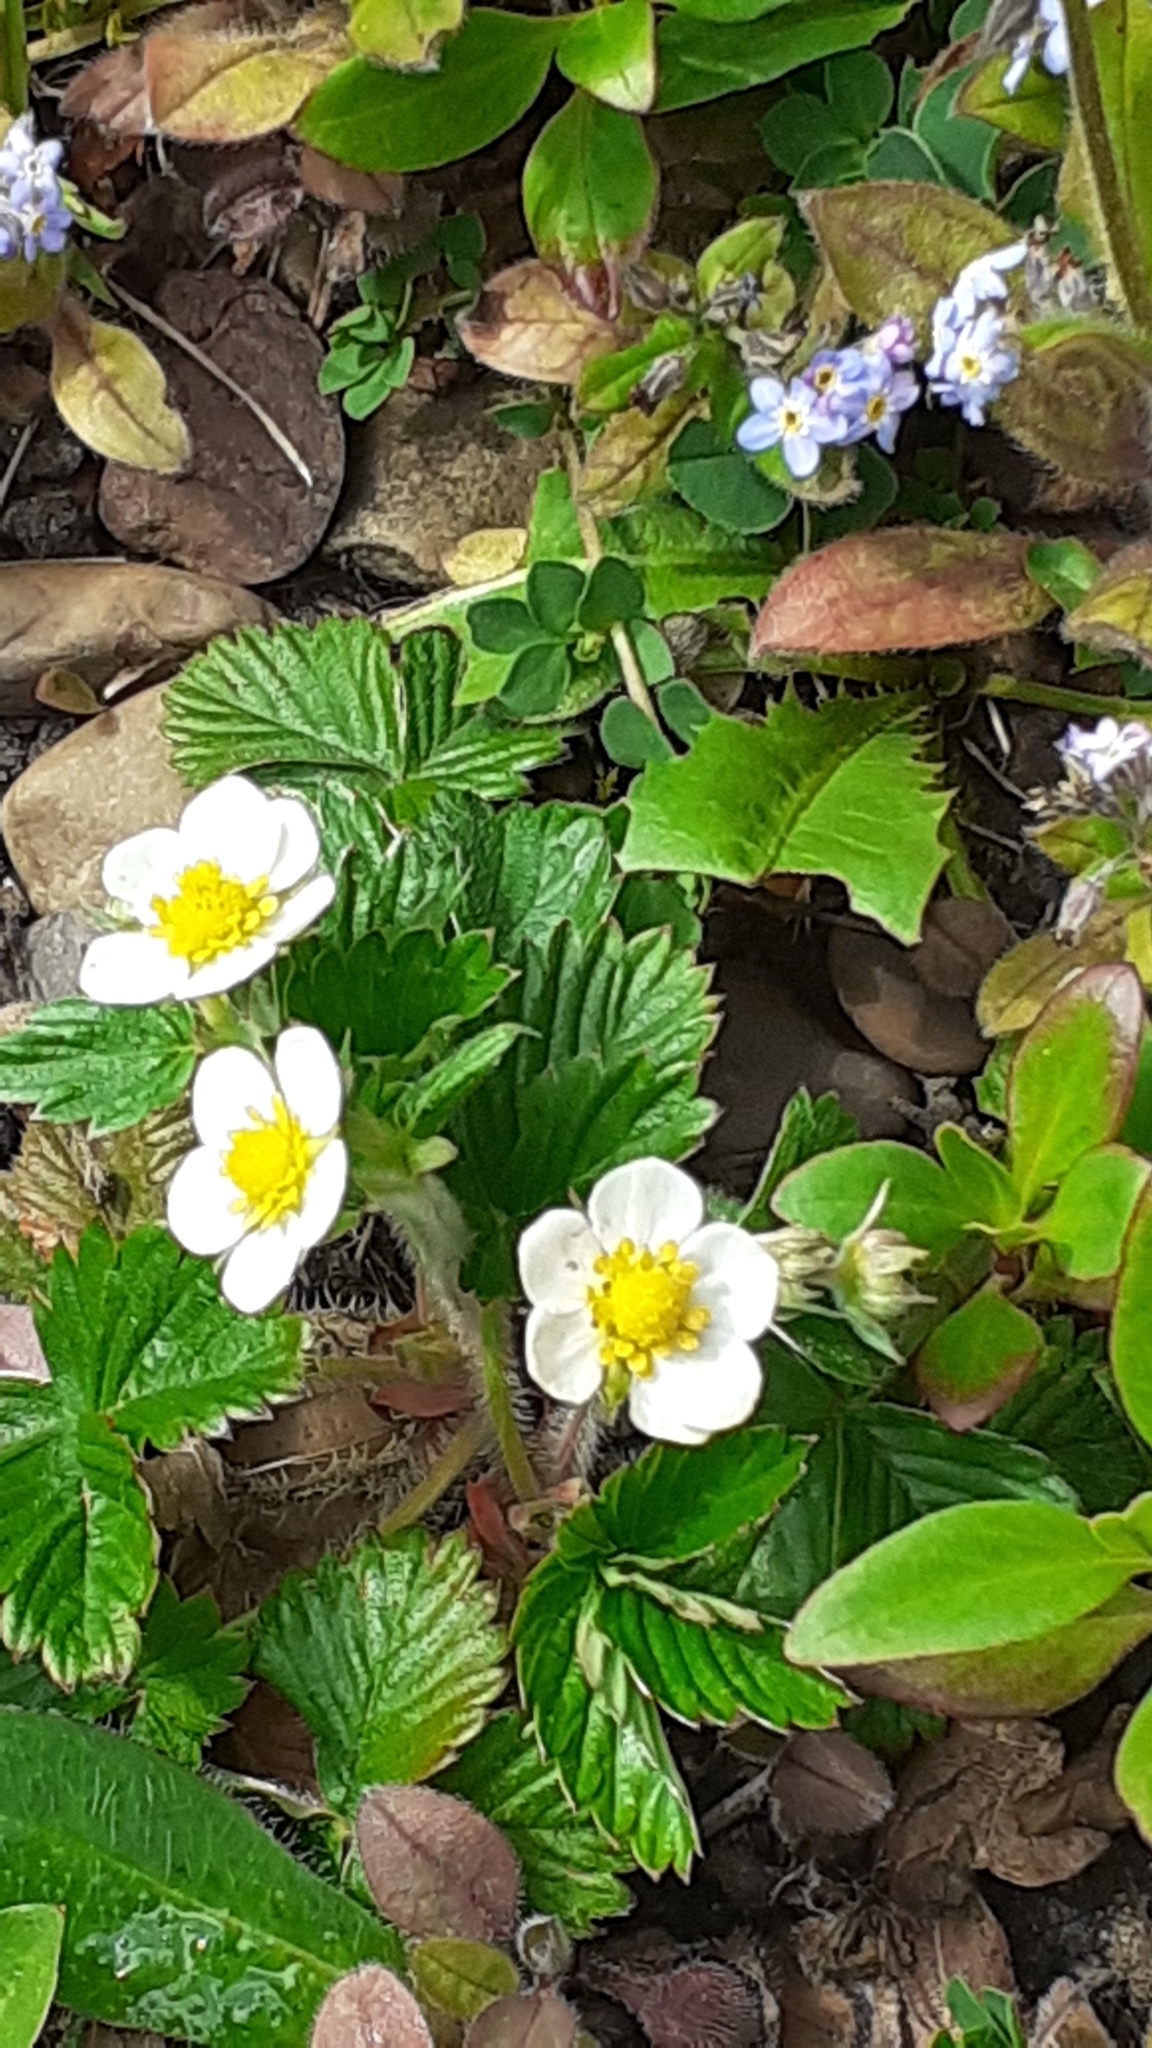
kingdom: Plantae
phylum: Tracheophyta
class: Magnoliopsida
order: Rosales
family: Rosaceae
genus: Fragaria
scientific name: Fragaria vesca
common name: Wild strawberry
